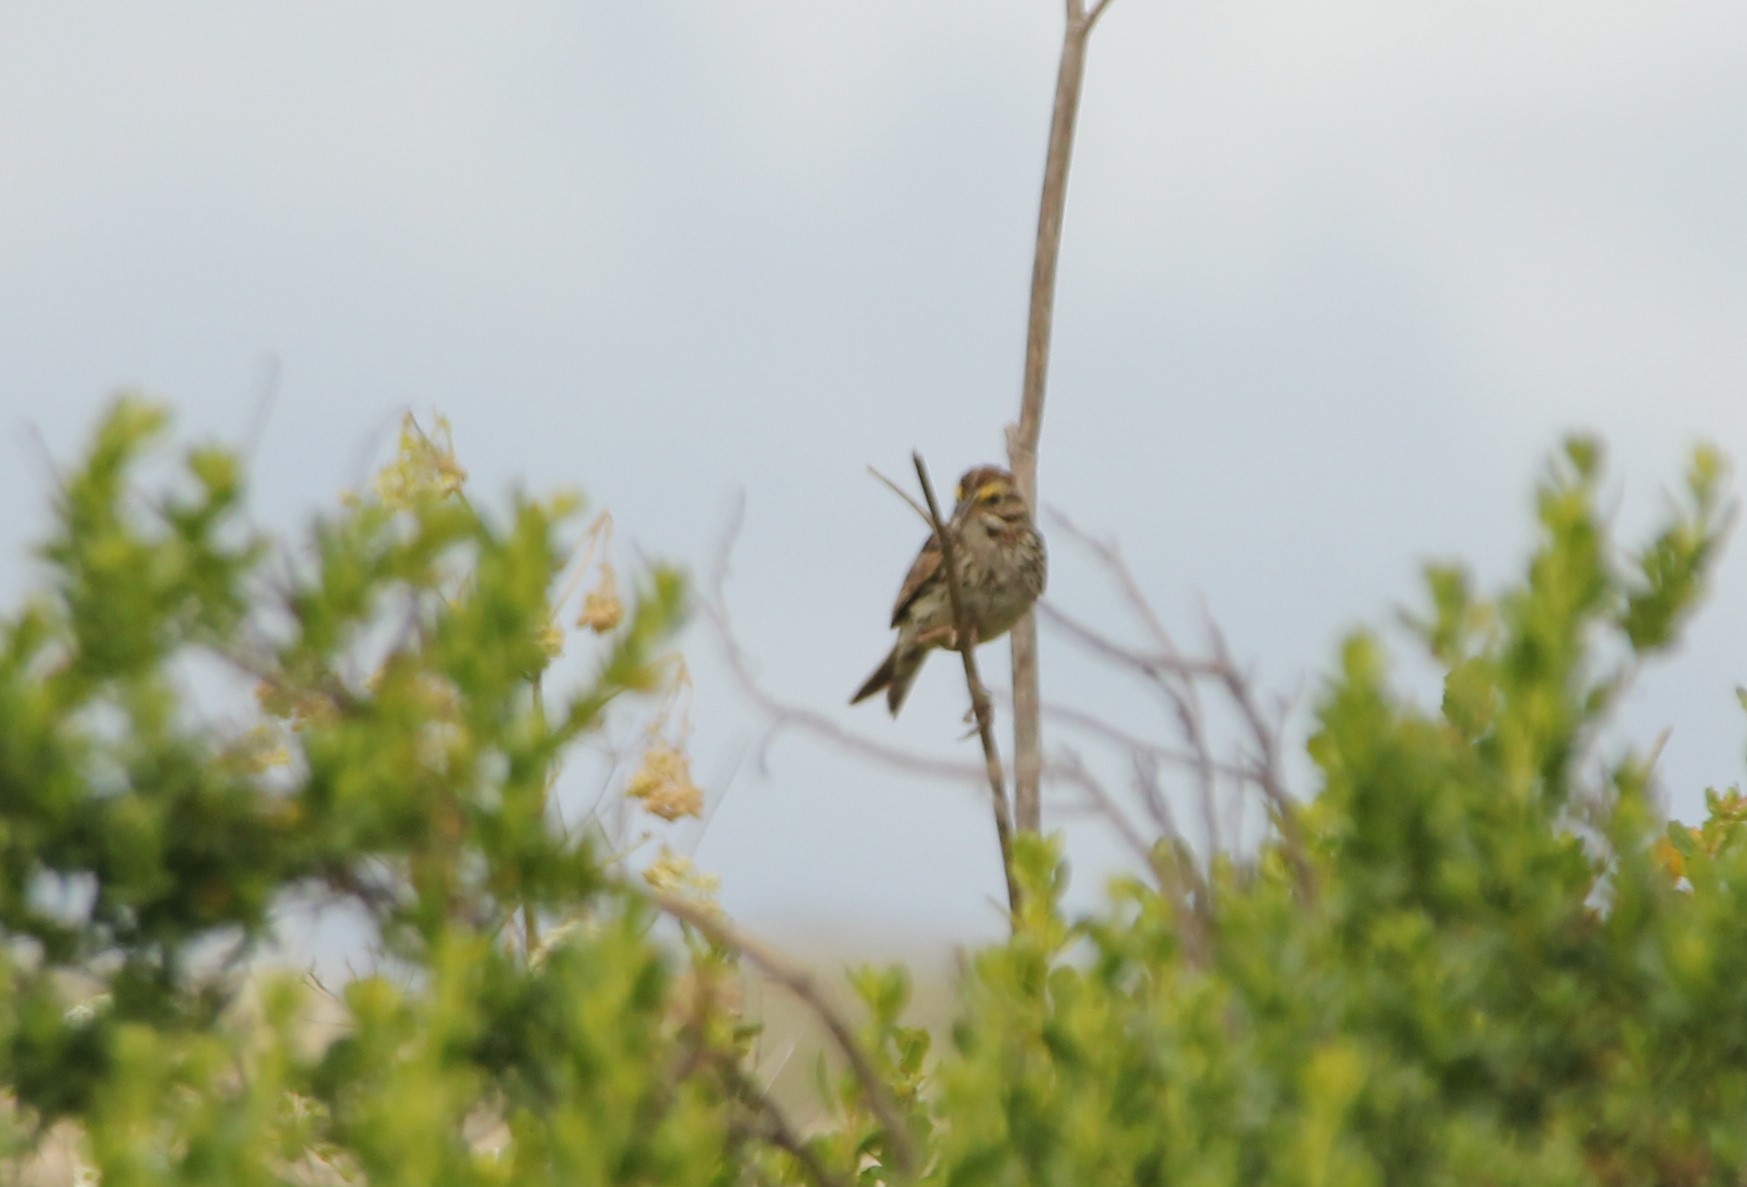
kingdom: Animalia
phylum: Chordata
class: Aves
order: Passeriformes
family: Passerellidae
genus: Passerculus
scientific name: Passerculus sandwichensis
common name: Savannah sparrow
